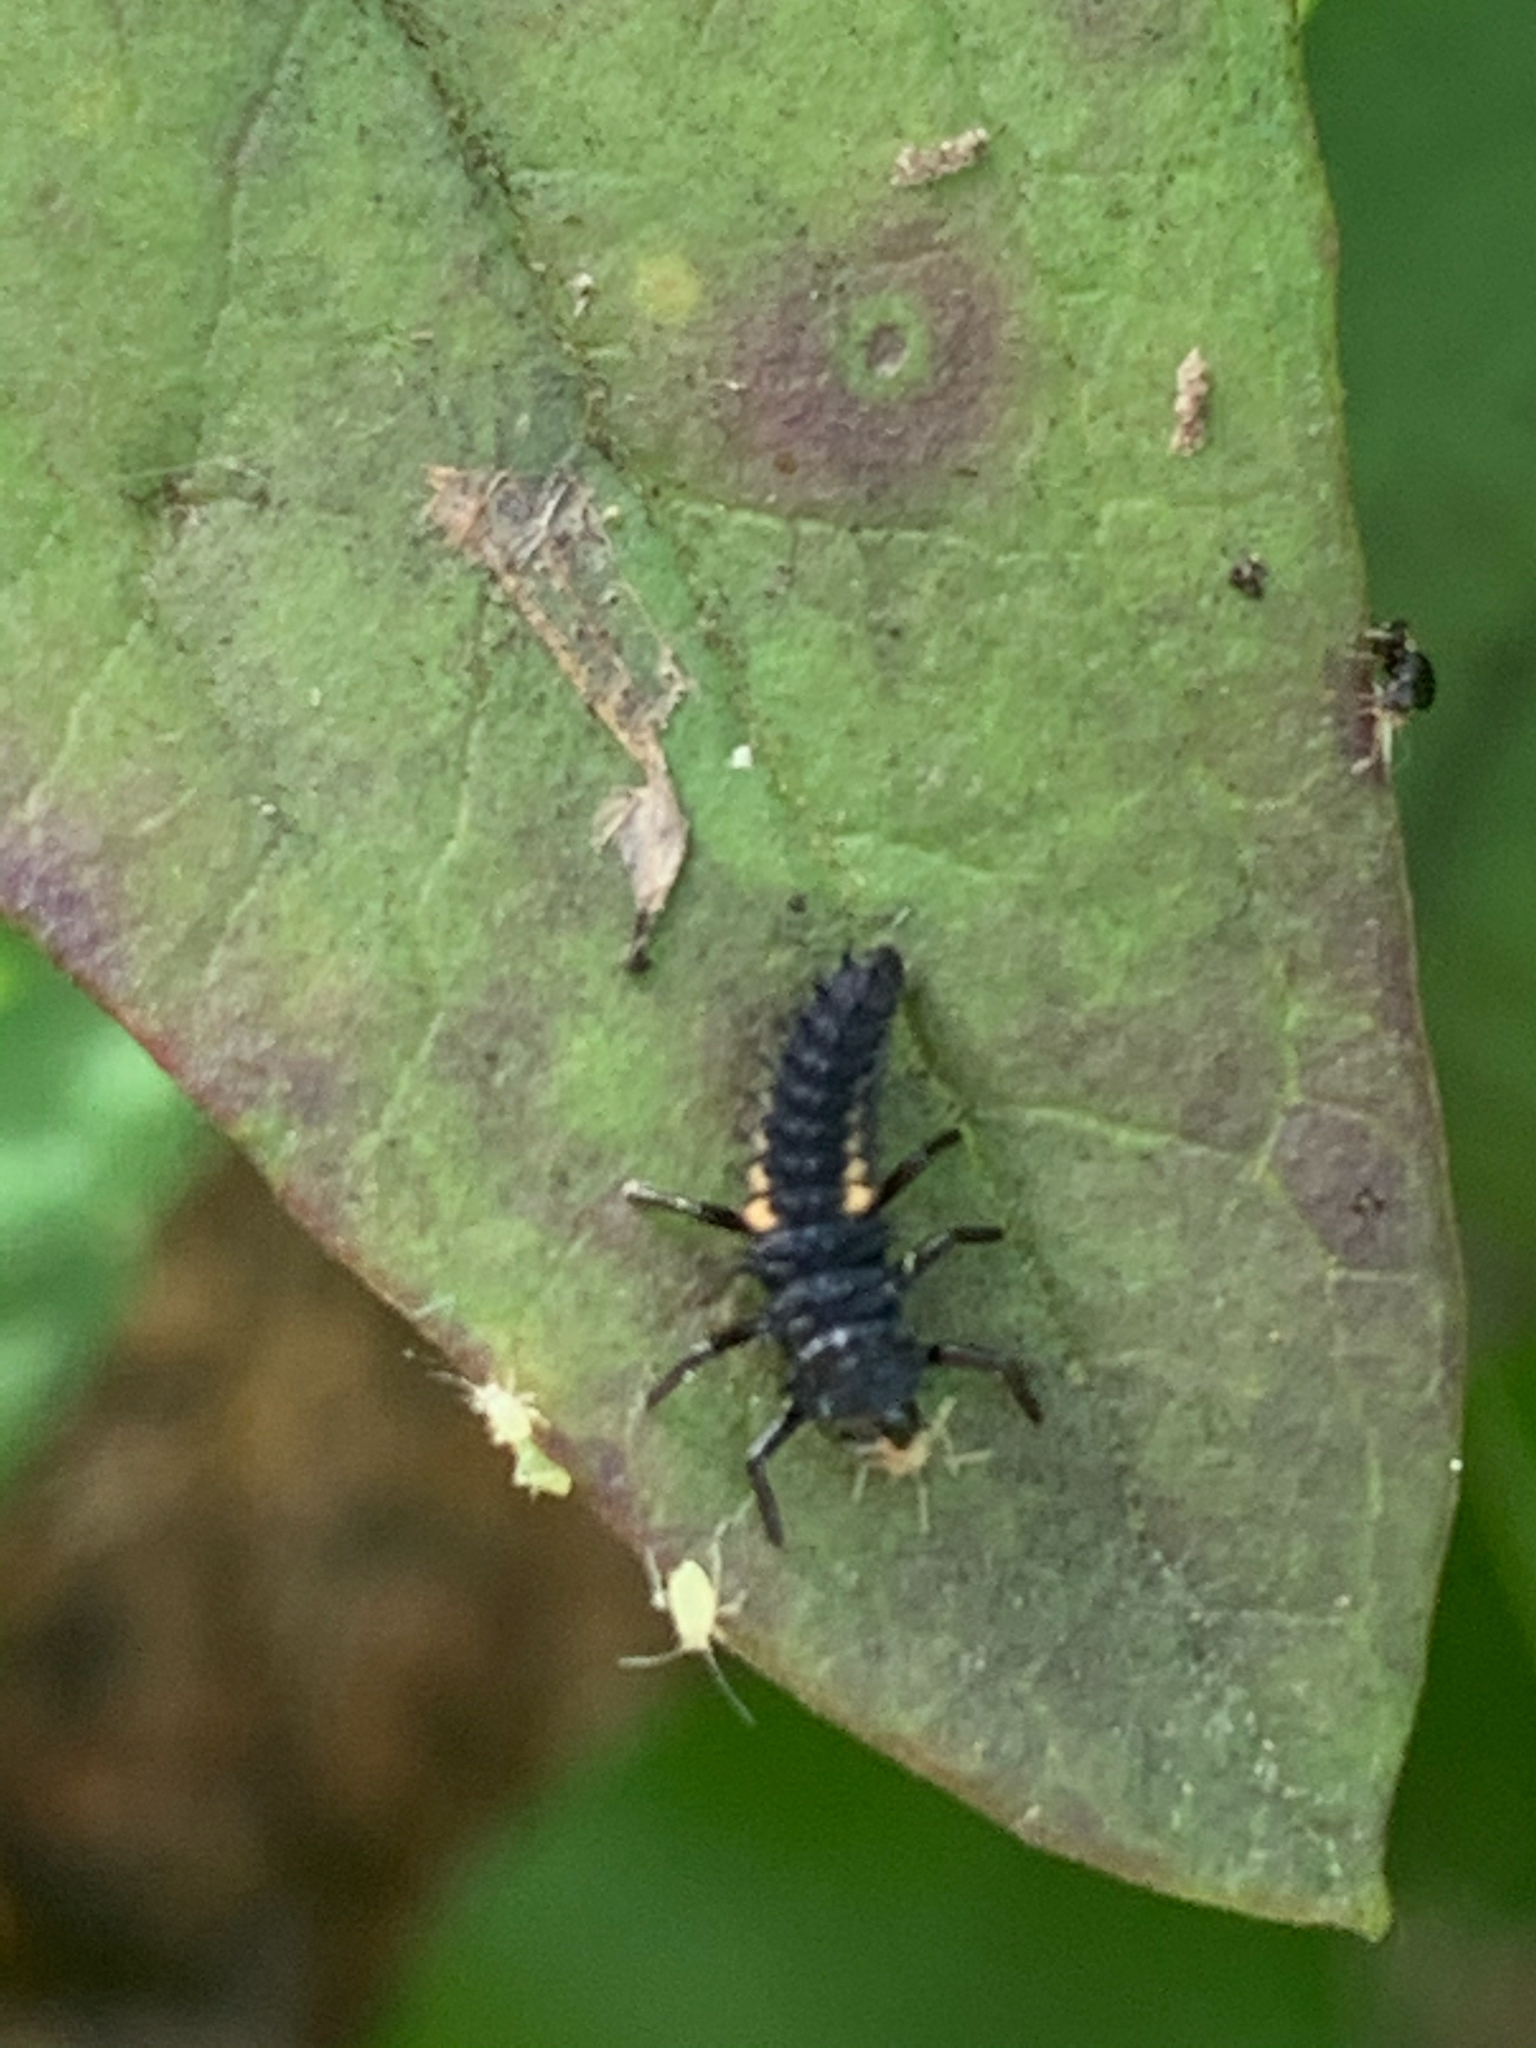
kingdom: Animalia
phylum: Arthropoda
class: Insecta
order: Coleoptera
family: Coccinellidae
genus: Harmonia
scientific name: Harmonia axyridis
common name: Harlequin ladybird
